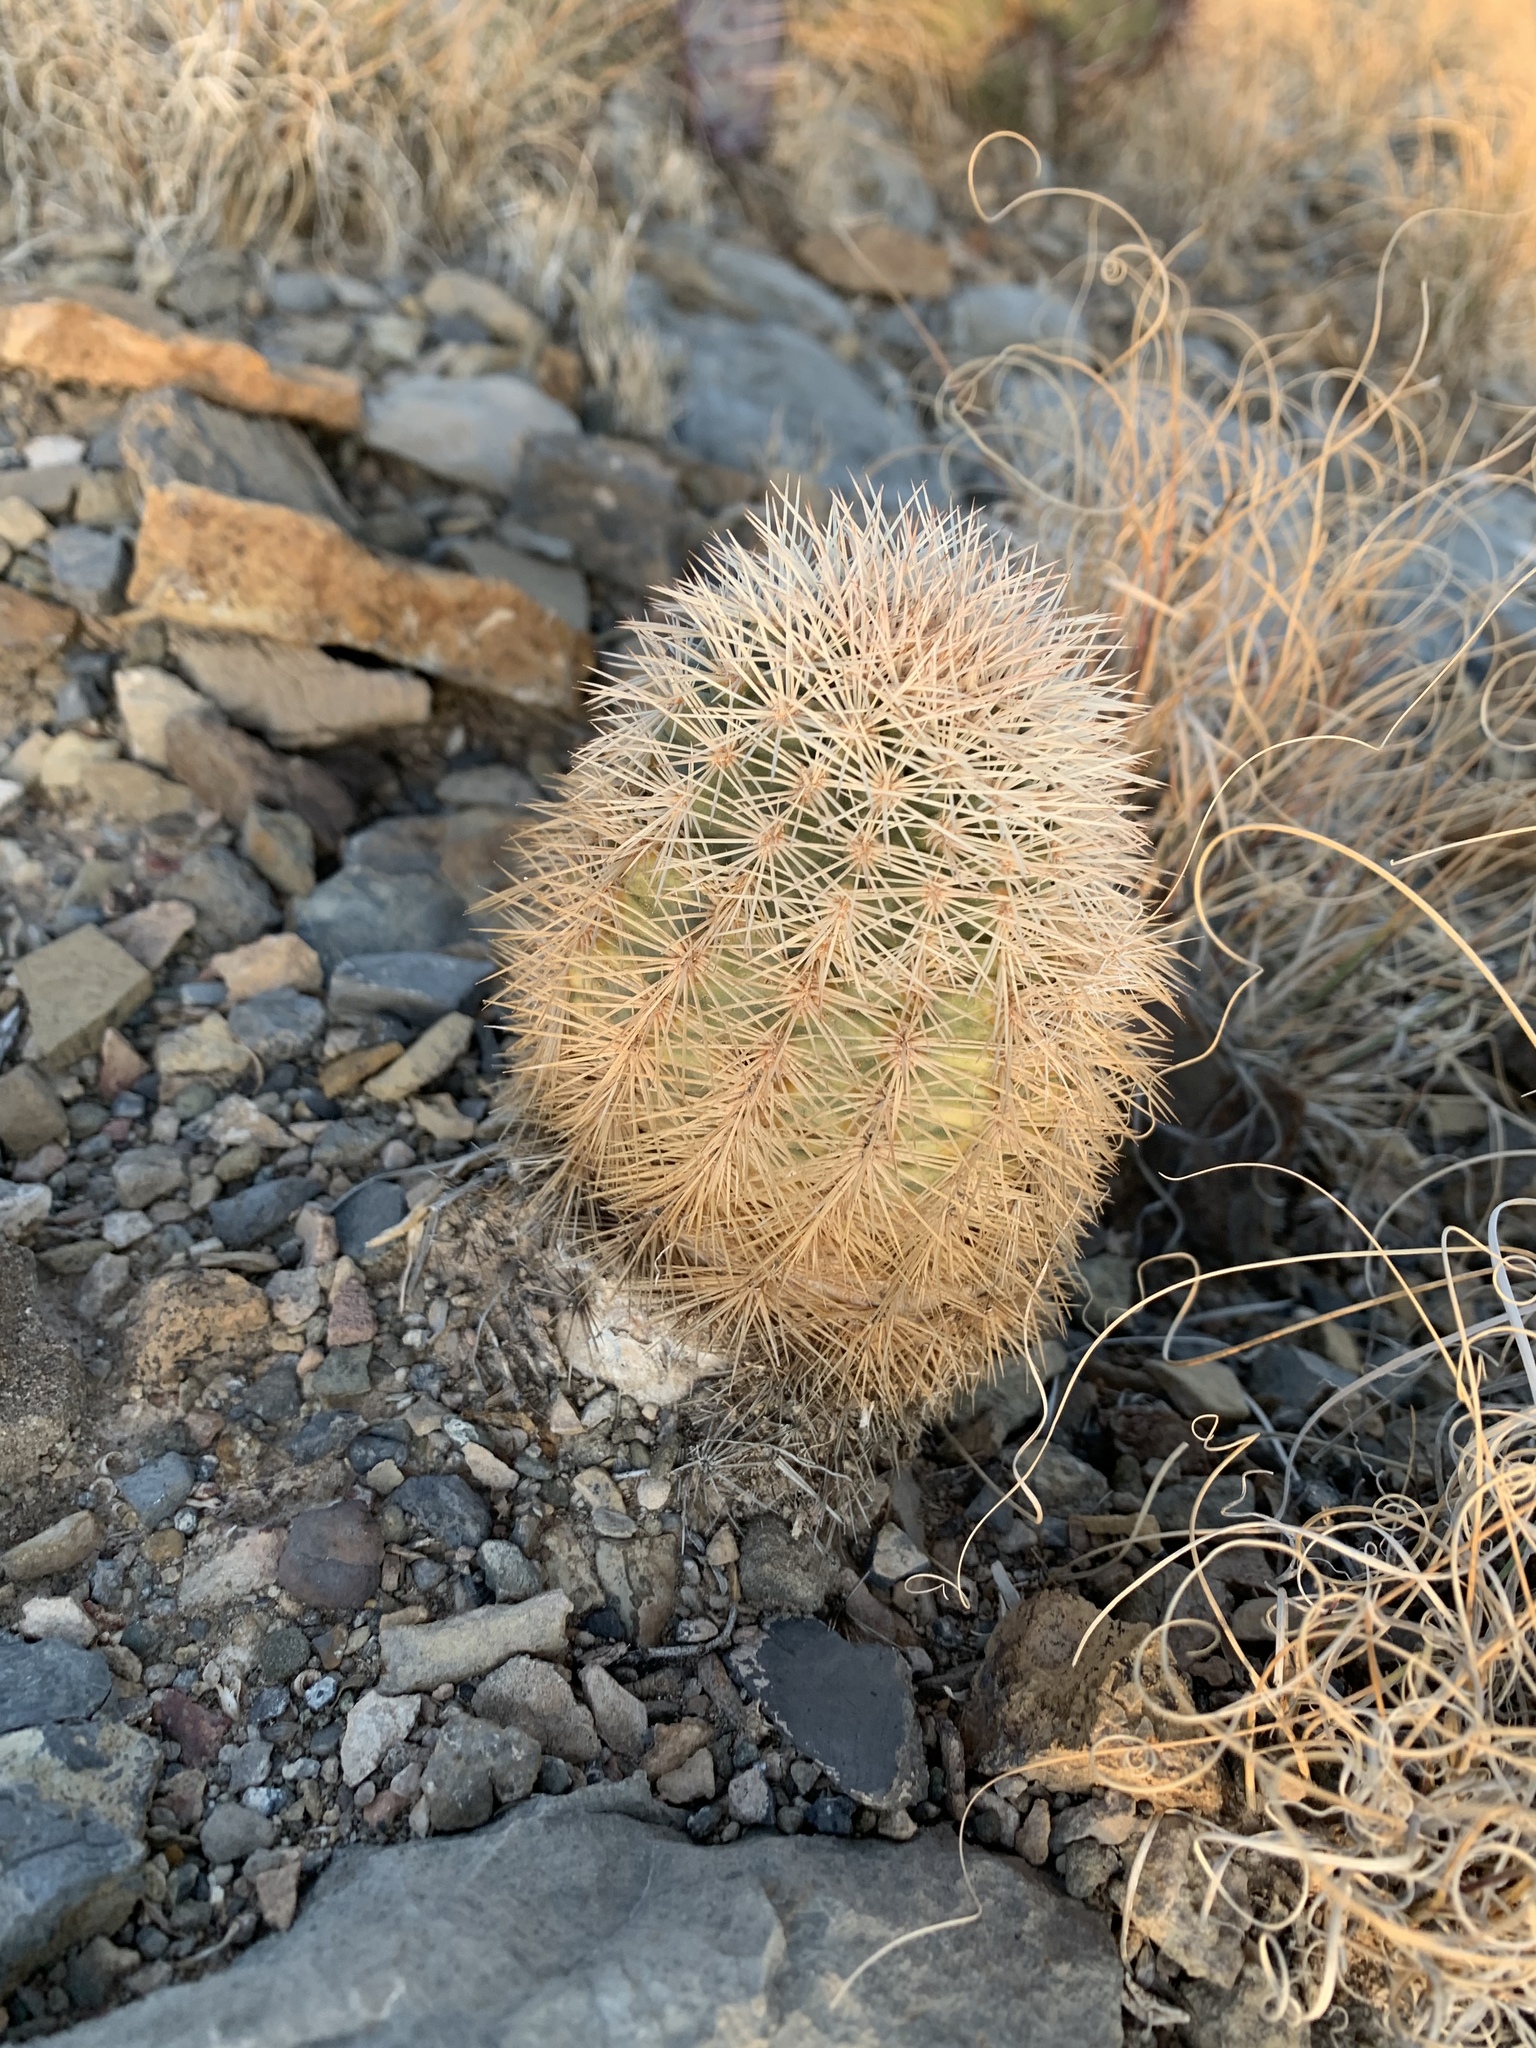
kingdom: Plantae
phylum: Tracheophyta
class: Magnoliopsida
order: Caryophyllales
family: Cactaceae
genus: Echinocereus
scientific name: Echinocereus dasyacanthus
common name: Spiny hedgehog cactus
